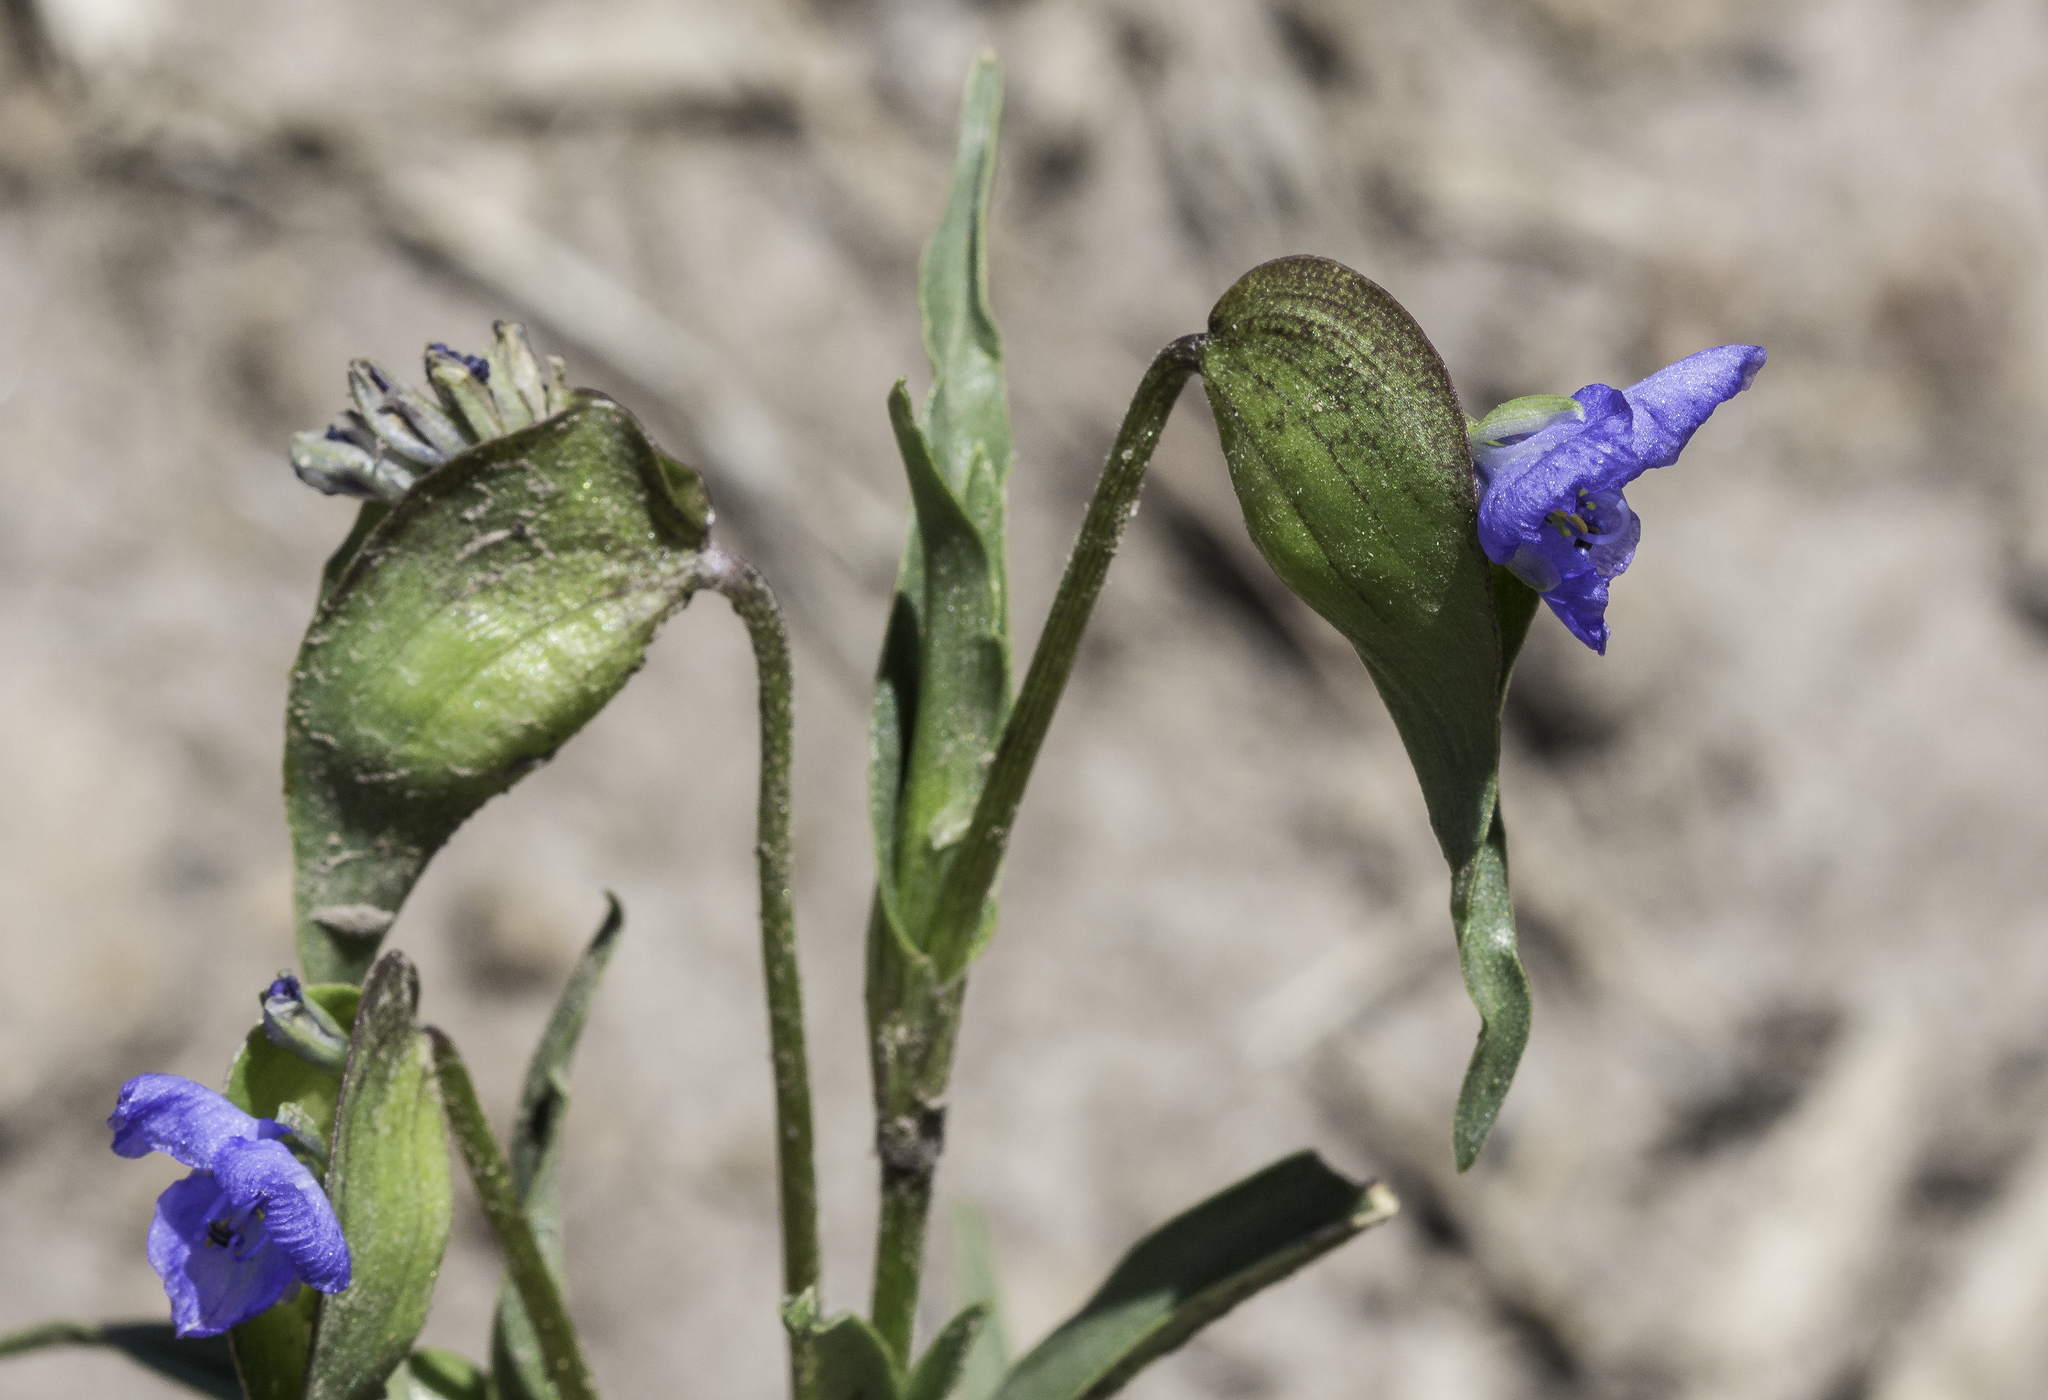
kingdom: Plantae
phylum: Tracheophyta
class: Liliopsida
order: Commelinales
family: Commelinaceae
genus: Commelina
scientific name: Commelina dianthifolia
